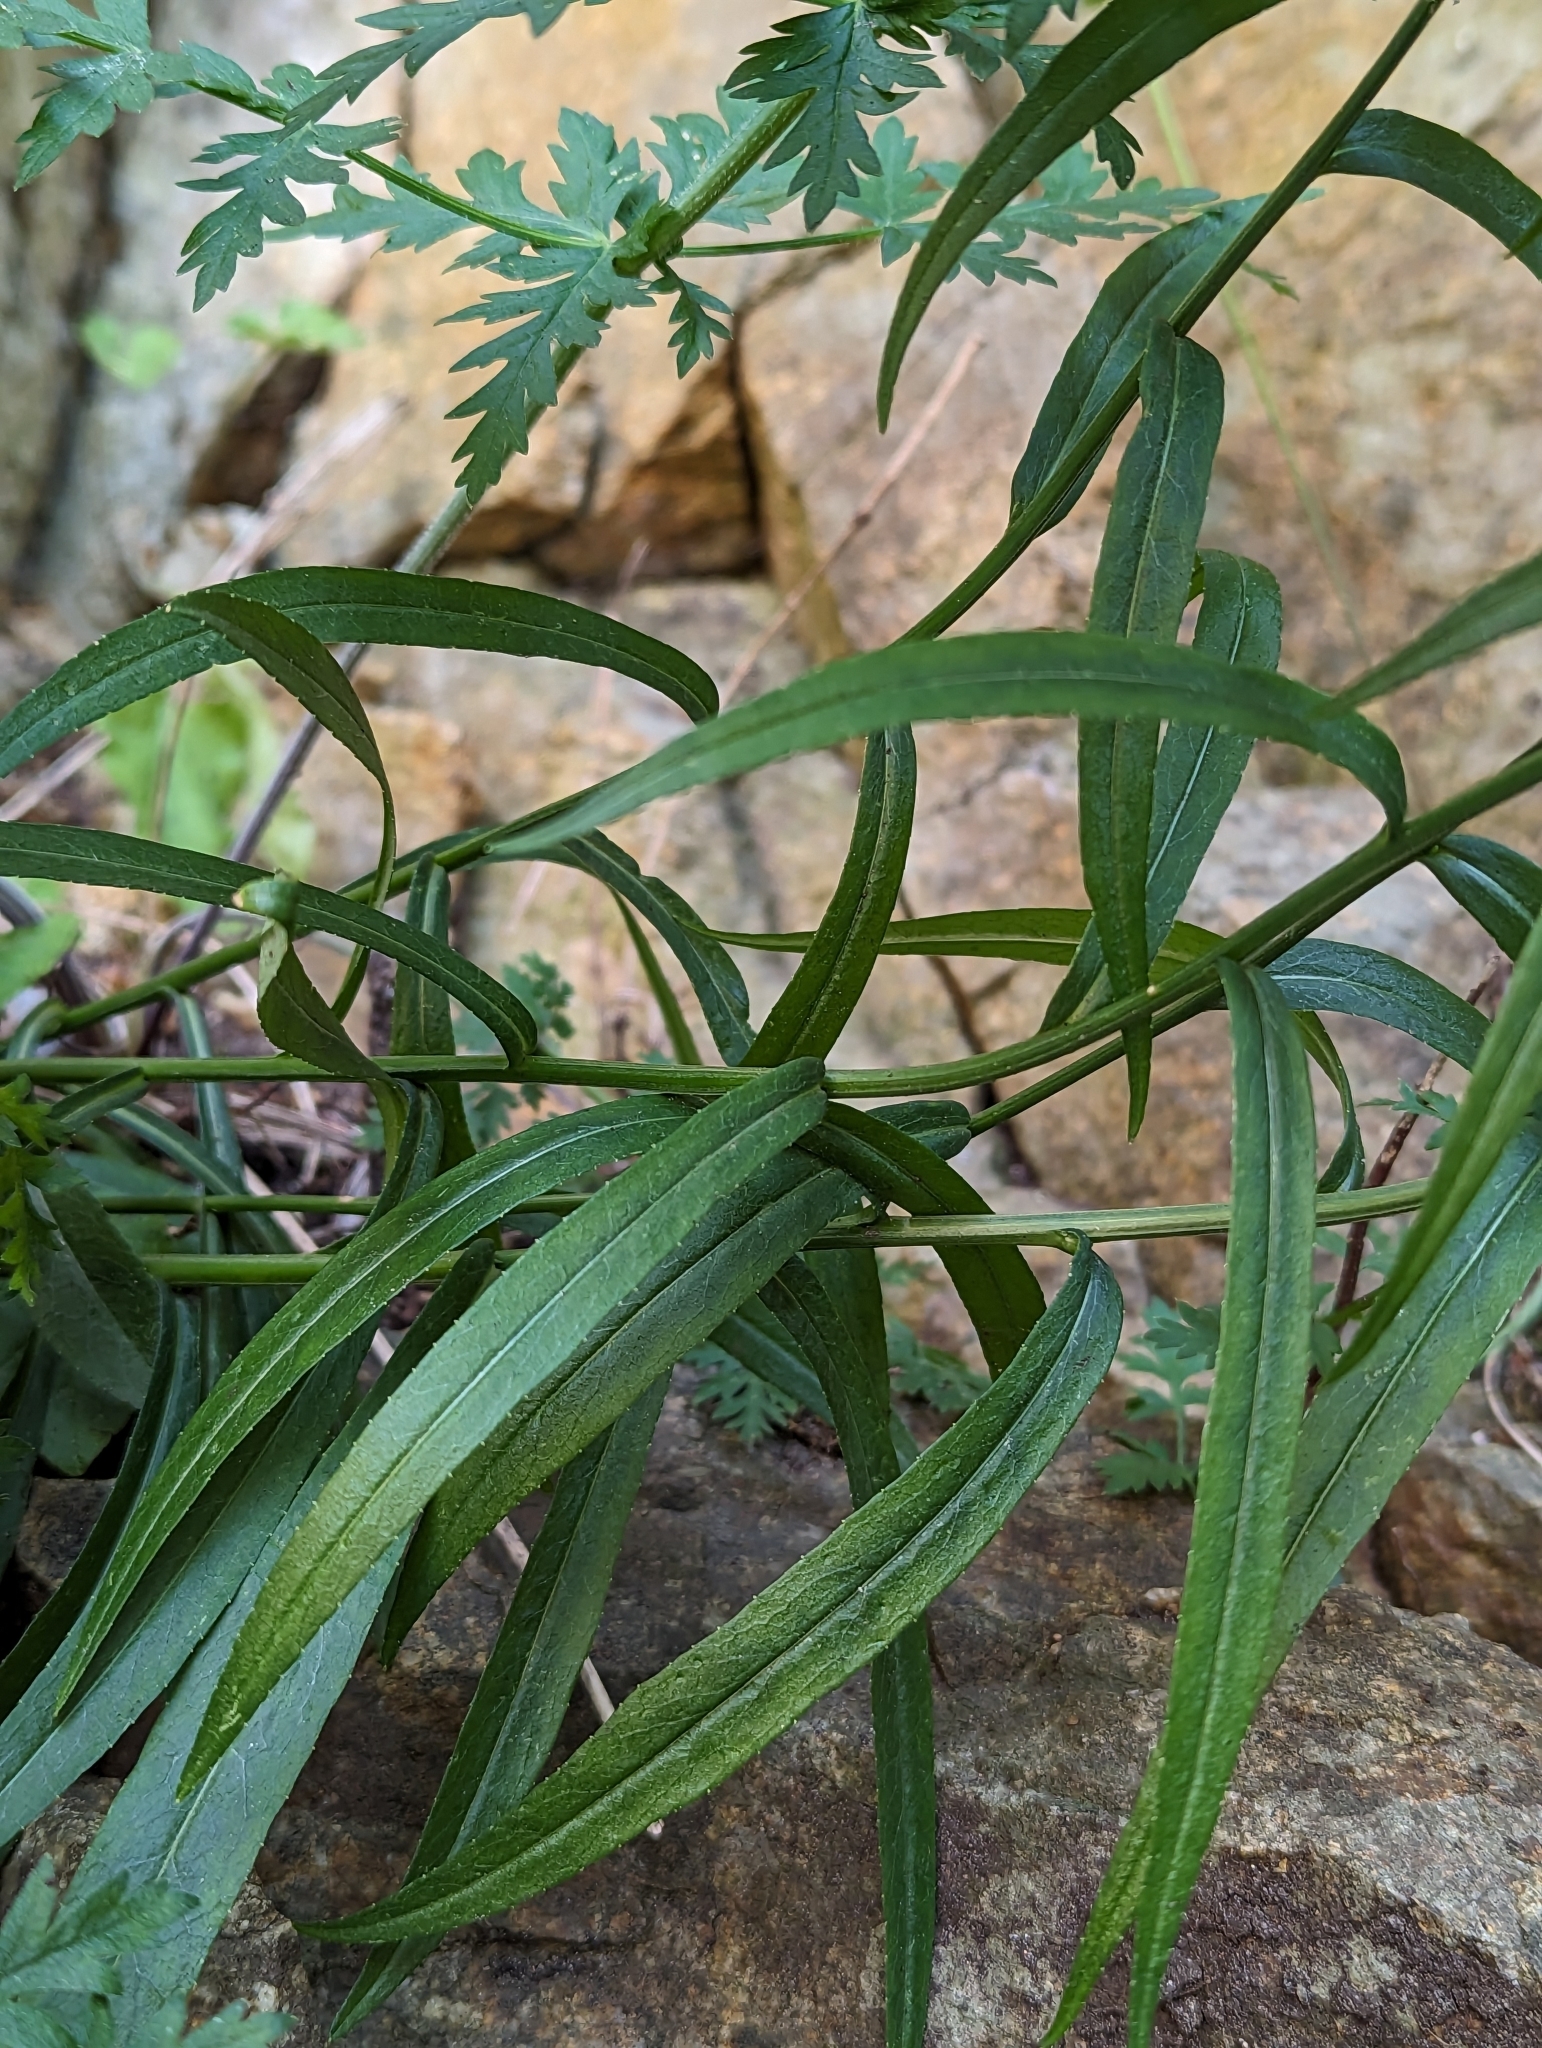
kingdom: Plantae
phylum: Tracheophyta
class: Magnoliopsida
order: Asterales
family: Campanulaceae
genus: Campanula
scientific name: Campanula persicifolia
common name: Peach-leaved bellflower
